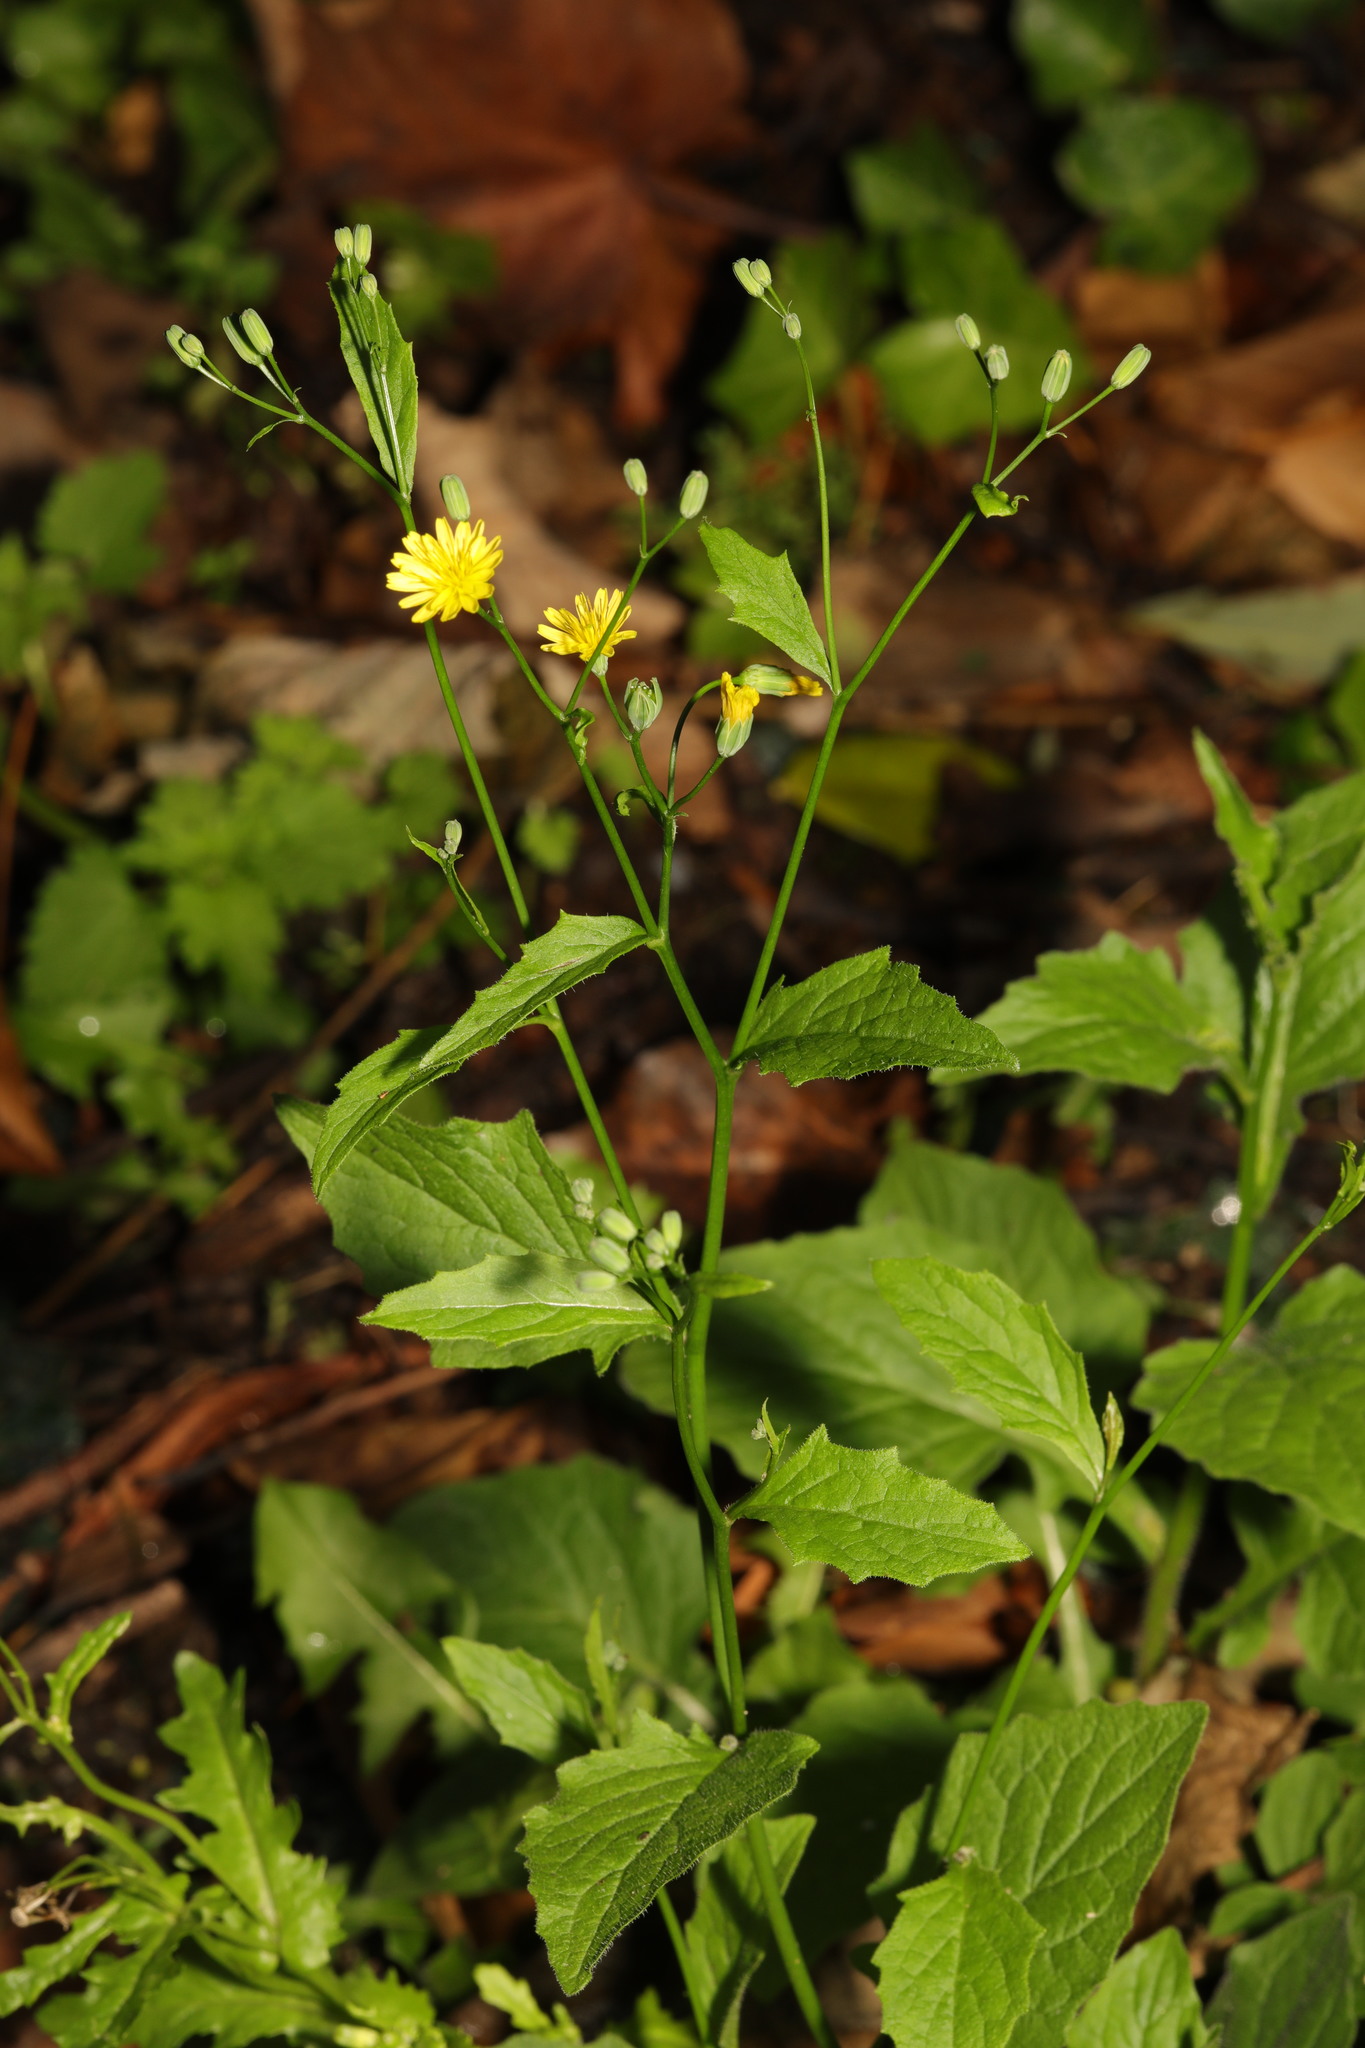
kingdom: Plantae
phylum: Tracheophyta
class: Magnoliopsida
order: Asterales
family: Asteraceae
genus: Lapsana
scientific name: Lapsana communis
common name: Nipplewort
